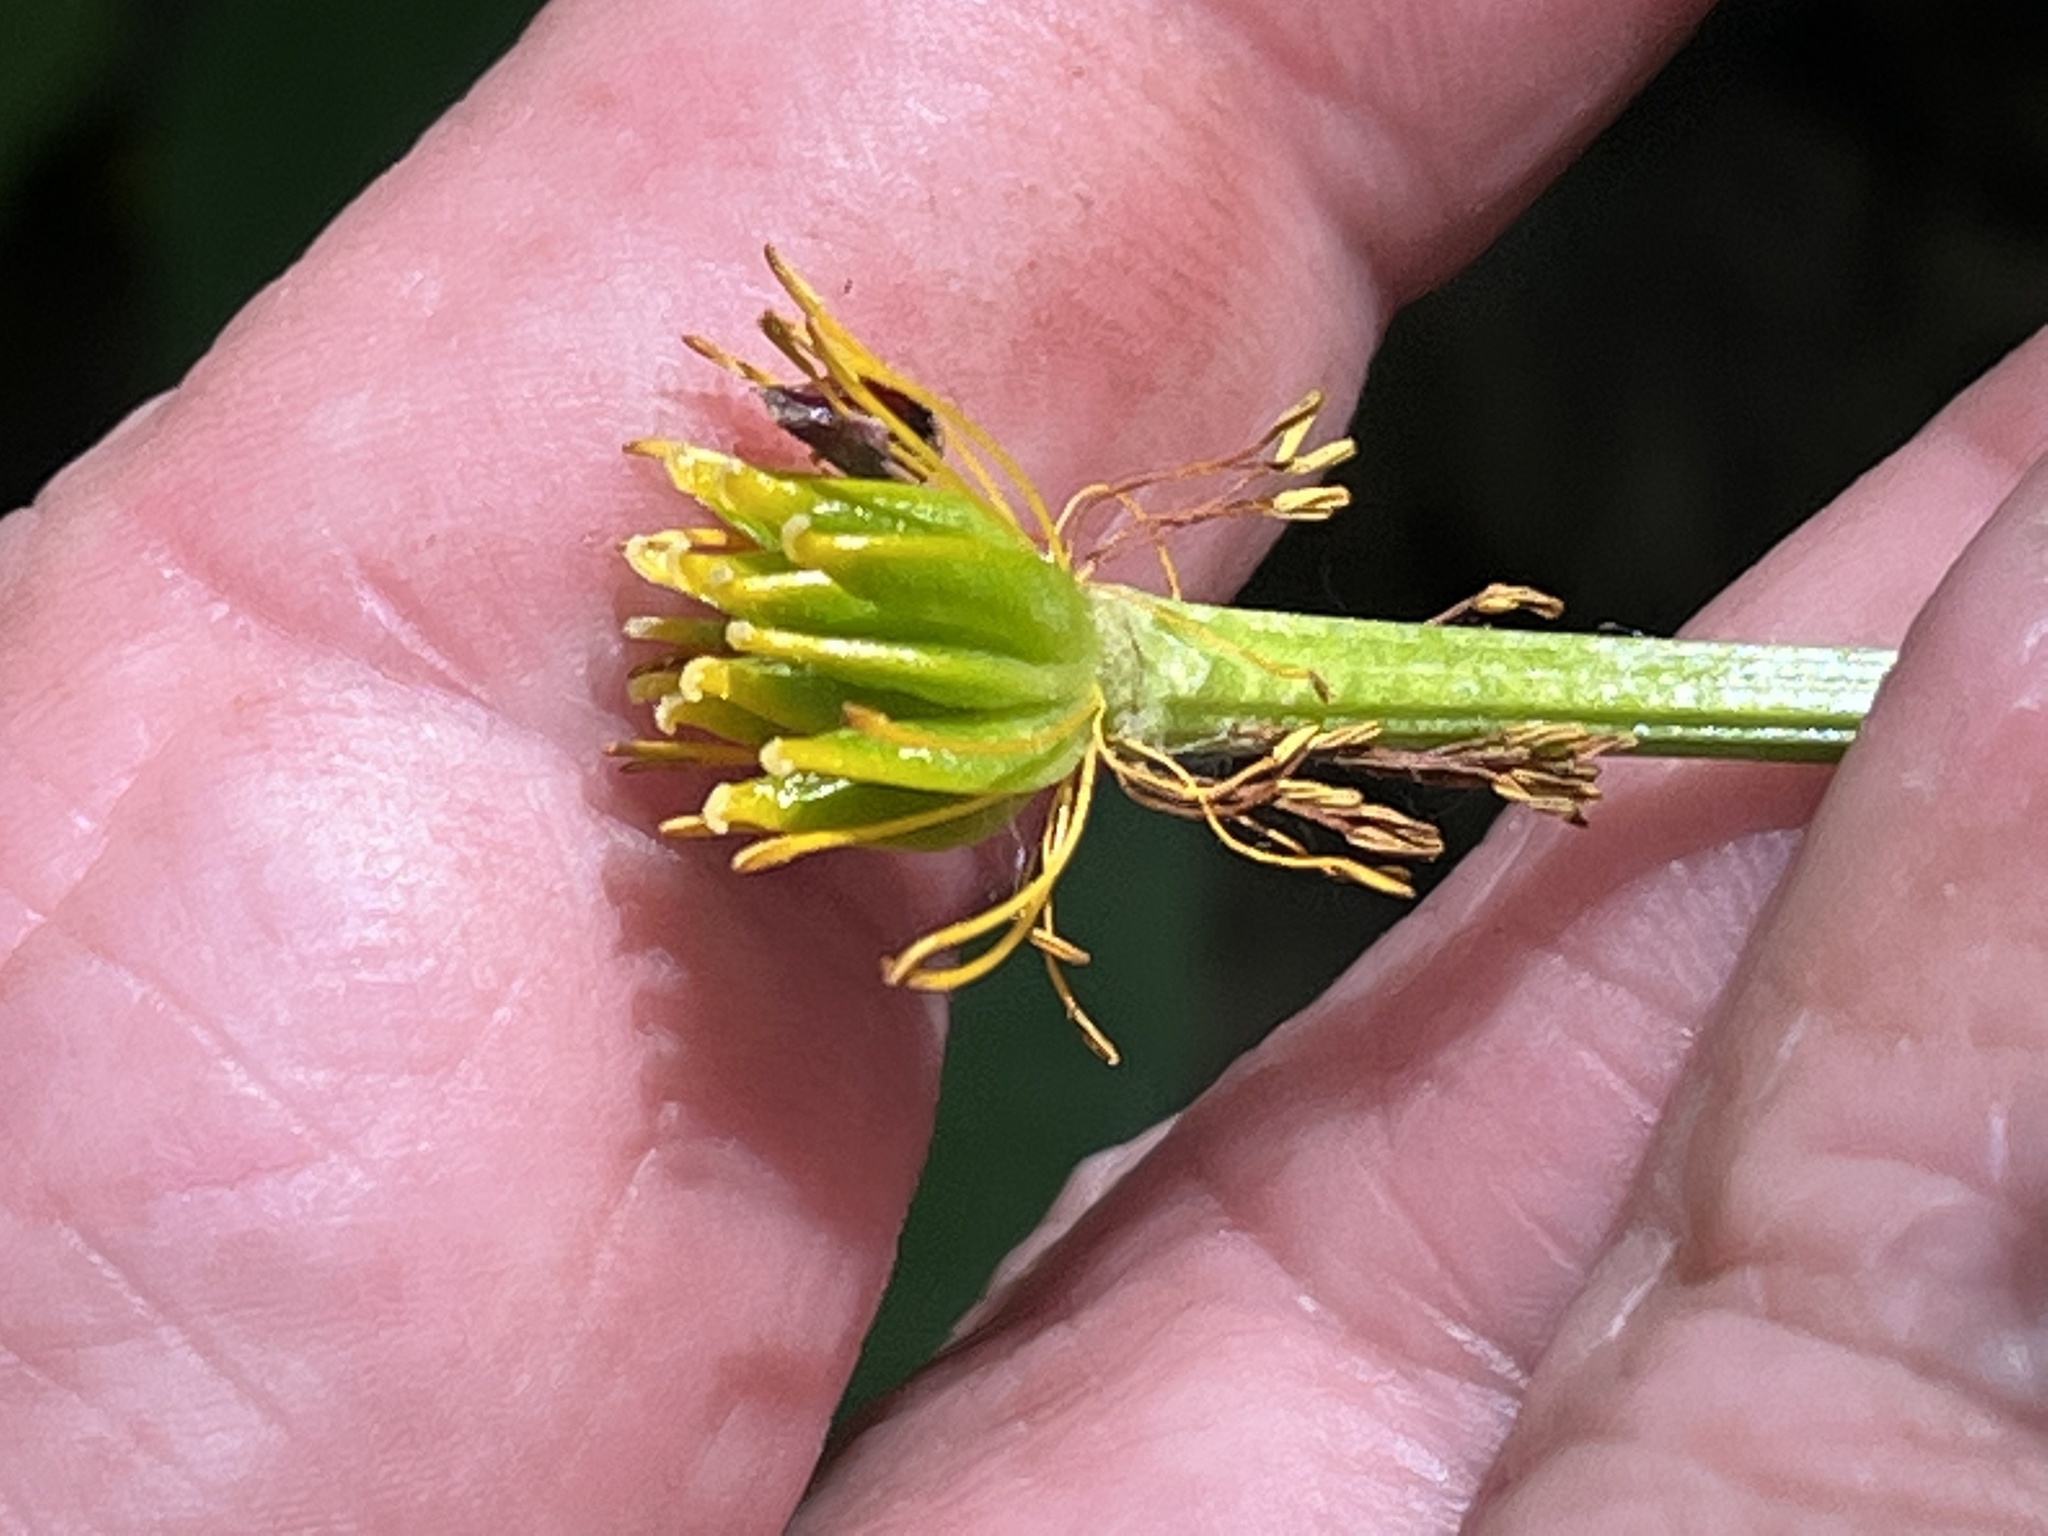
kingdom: Plantae
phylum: Tracheophyta
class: Magnoliopsida
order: Ranunculales
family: Ranunculaceae
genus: Caltha
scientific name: Caltha palustris
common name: Marsh marigold
